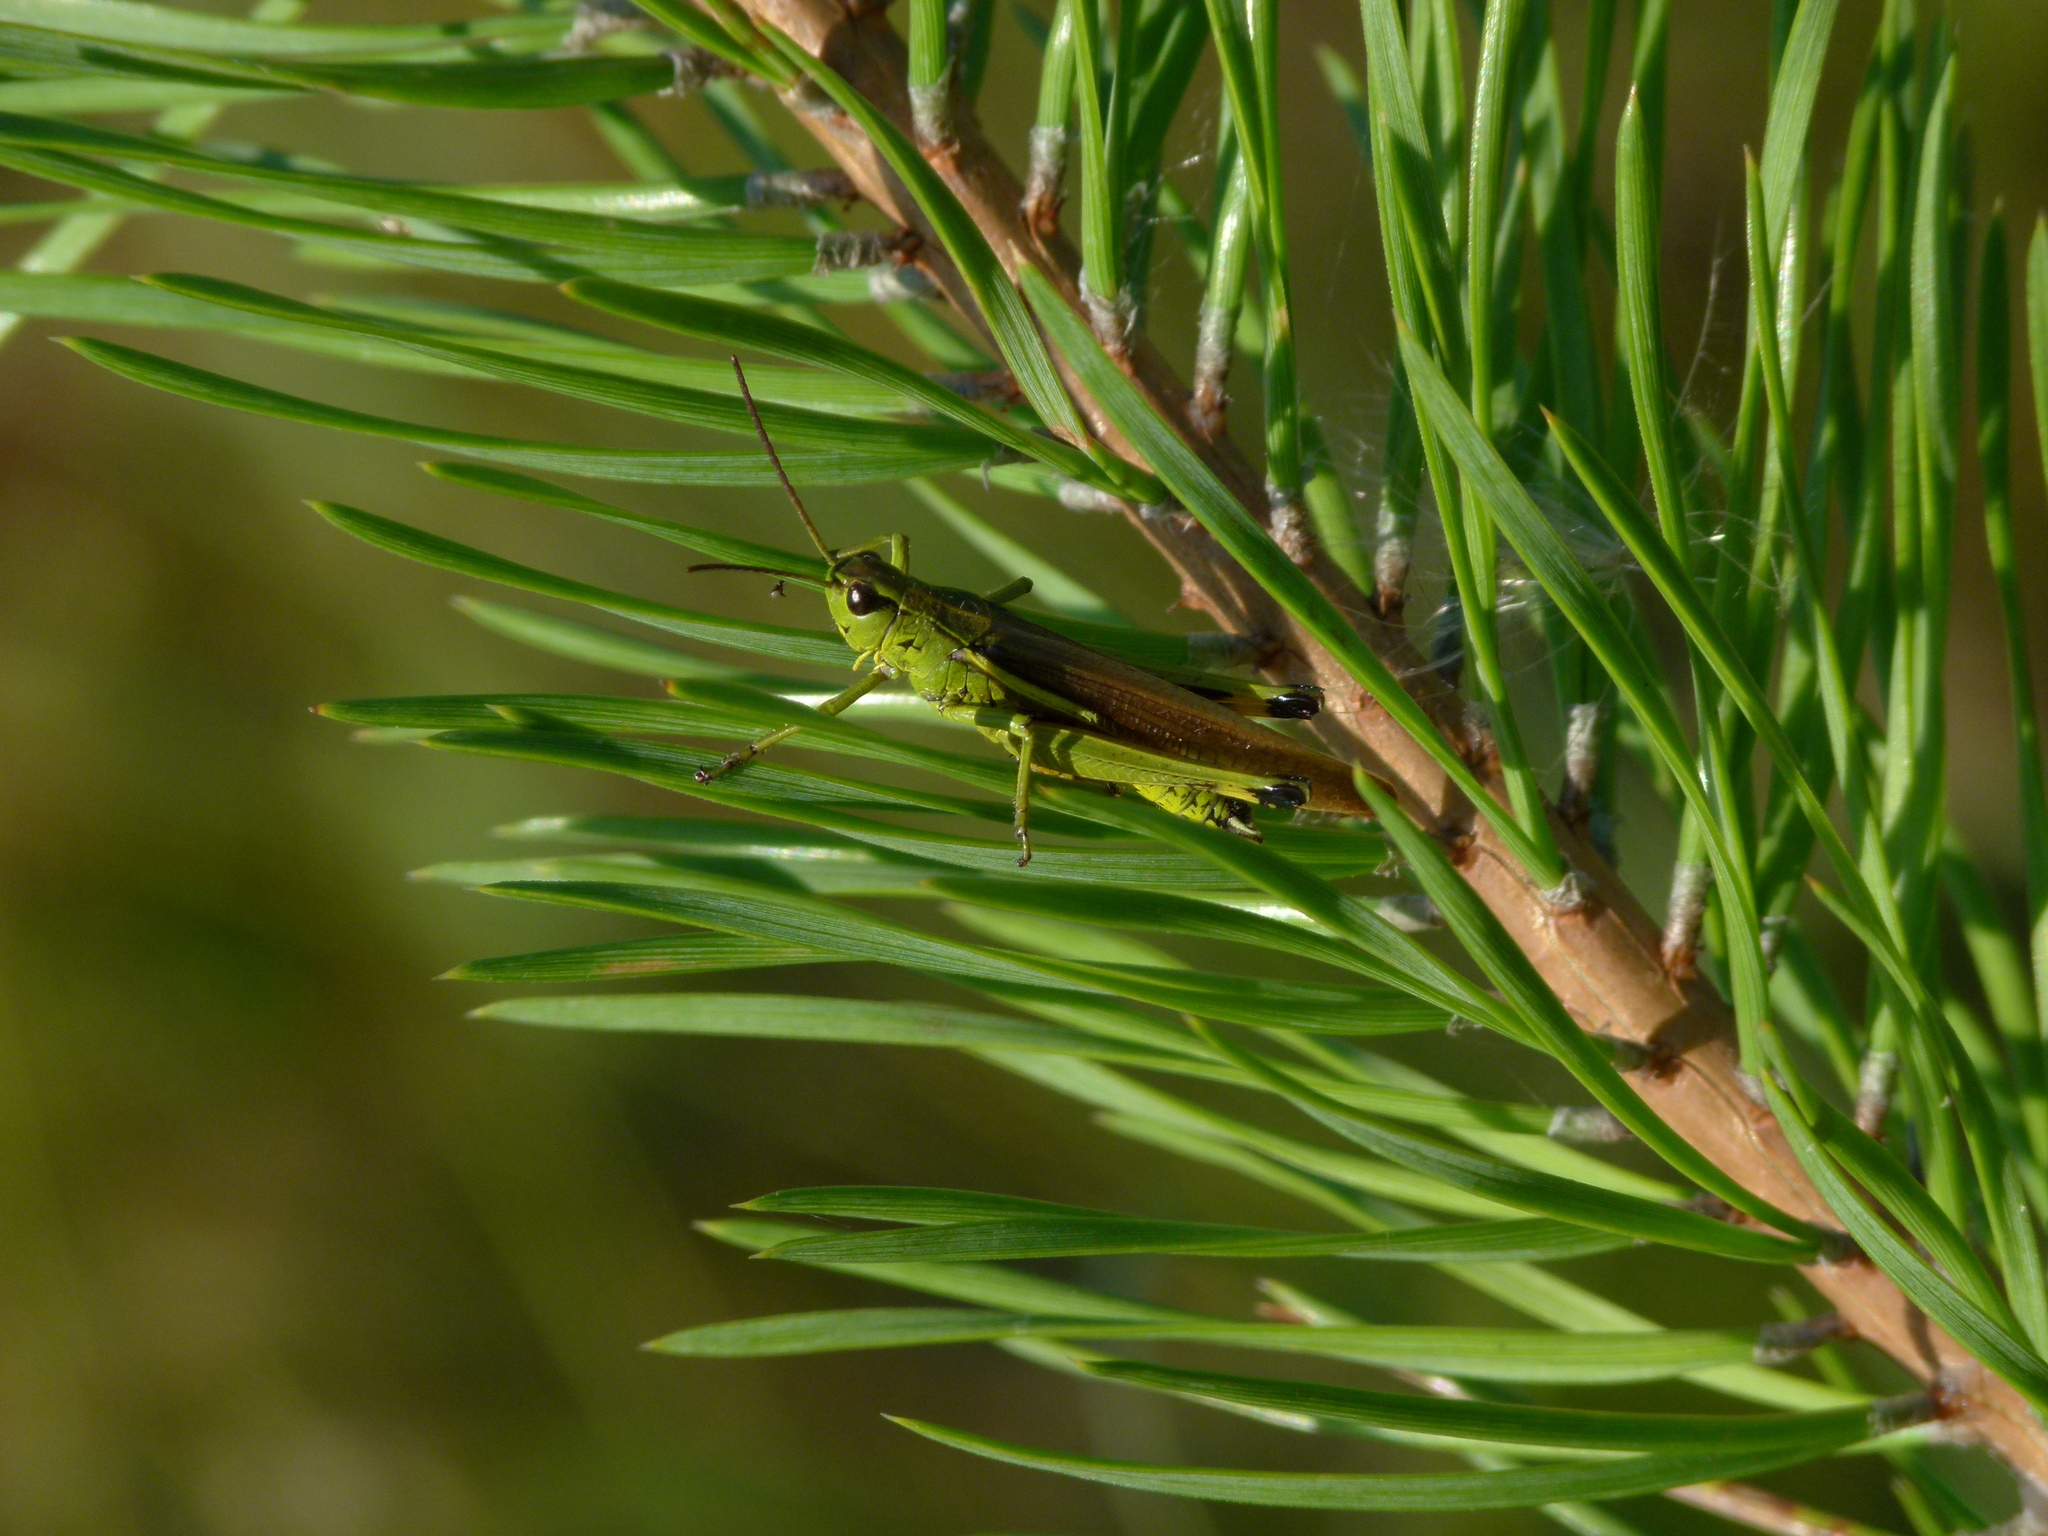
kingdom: Animalia
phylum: Arthropoda
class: Insecta
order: Orthoptera
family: Acrididae
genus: Stethophyma
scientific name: Stethophyma grossum
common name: Large marsh grasshopper
